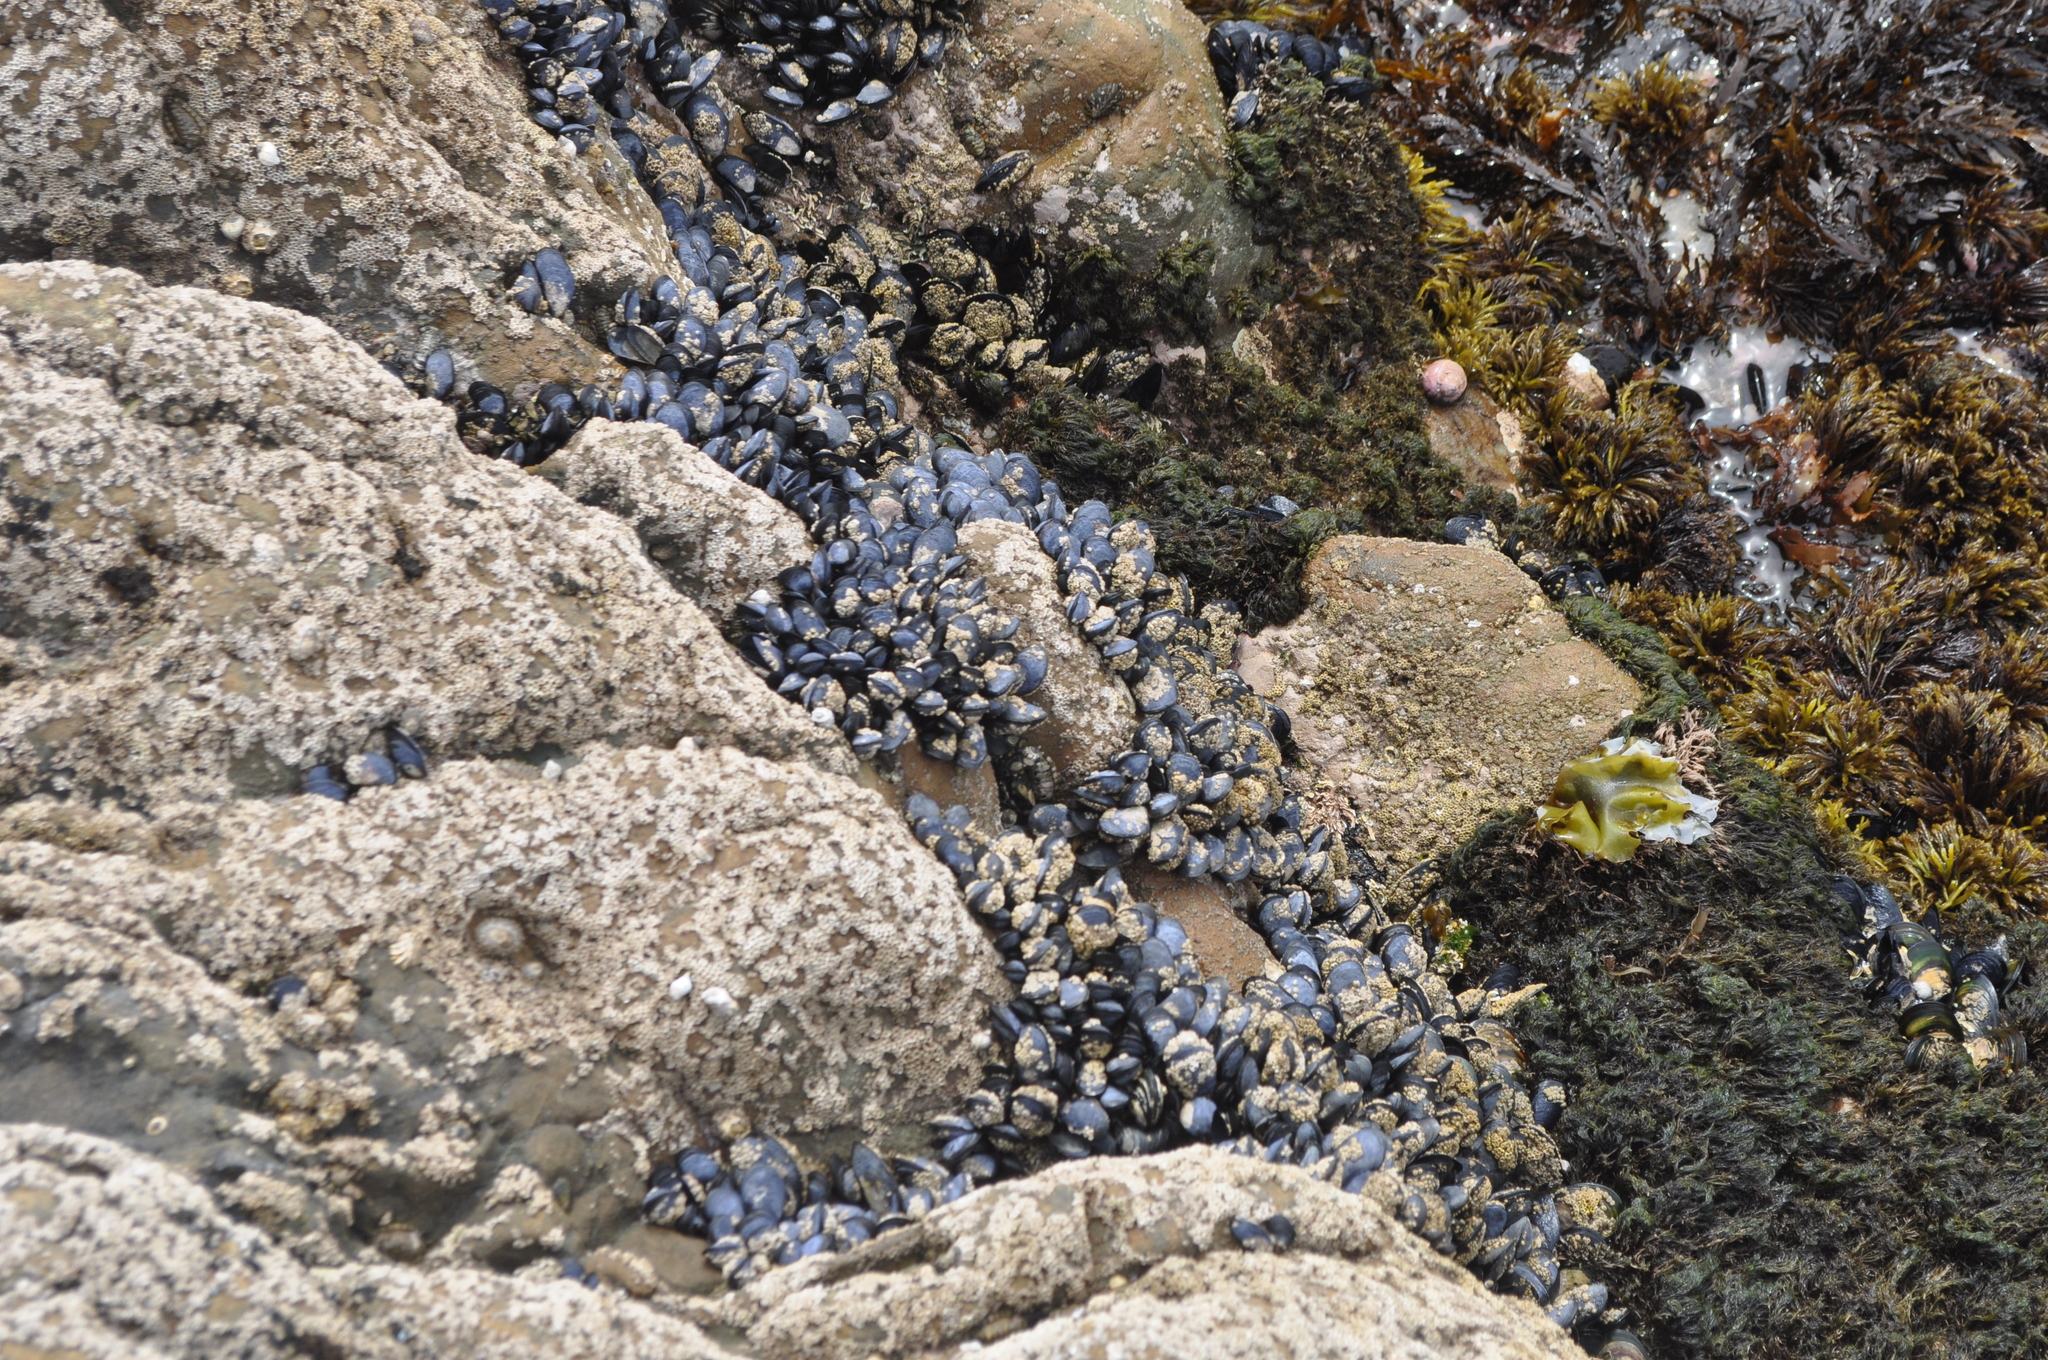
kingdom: Animalia
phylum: Mollusca
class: Bivalvia
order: Mytilida
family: Mytilidae
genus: Mytilus
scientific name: Mytilus planulatus
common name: Australian mussel
